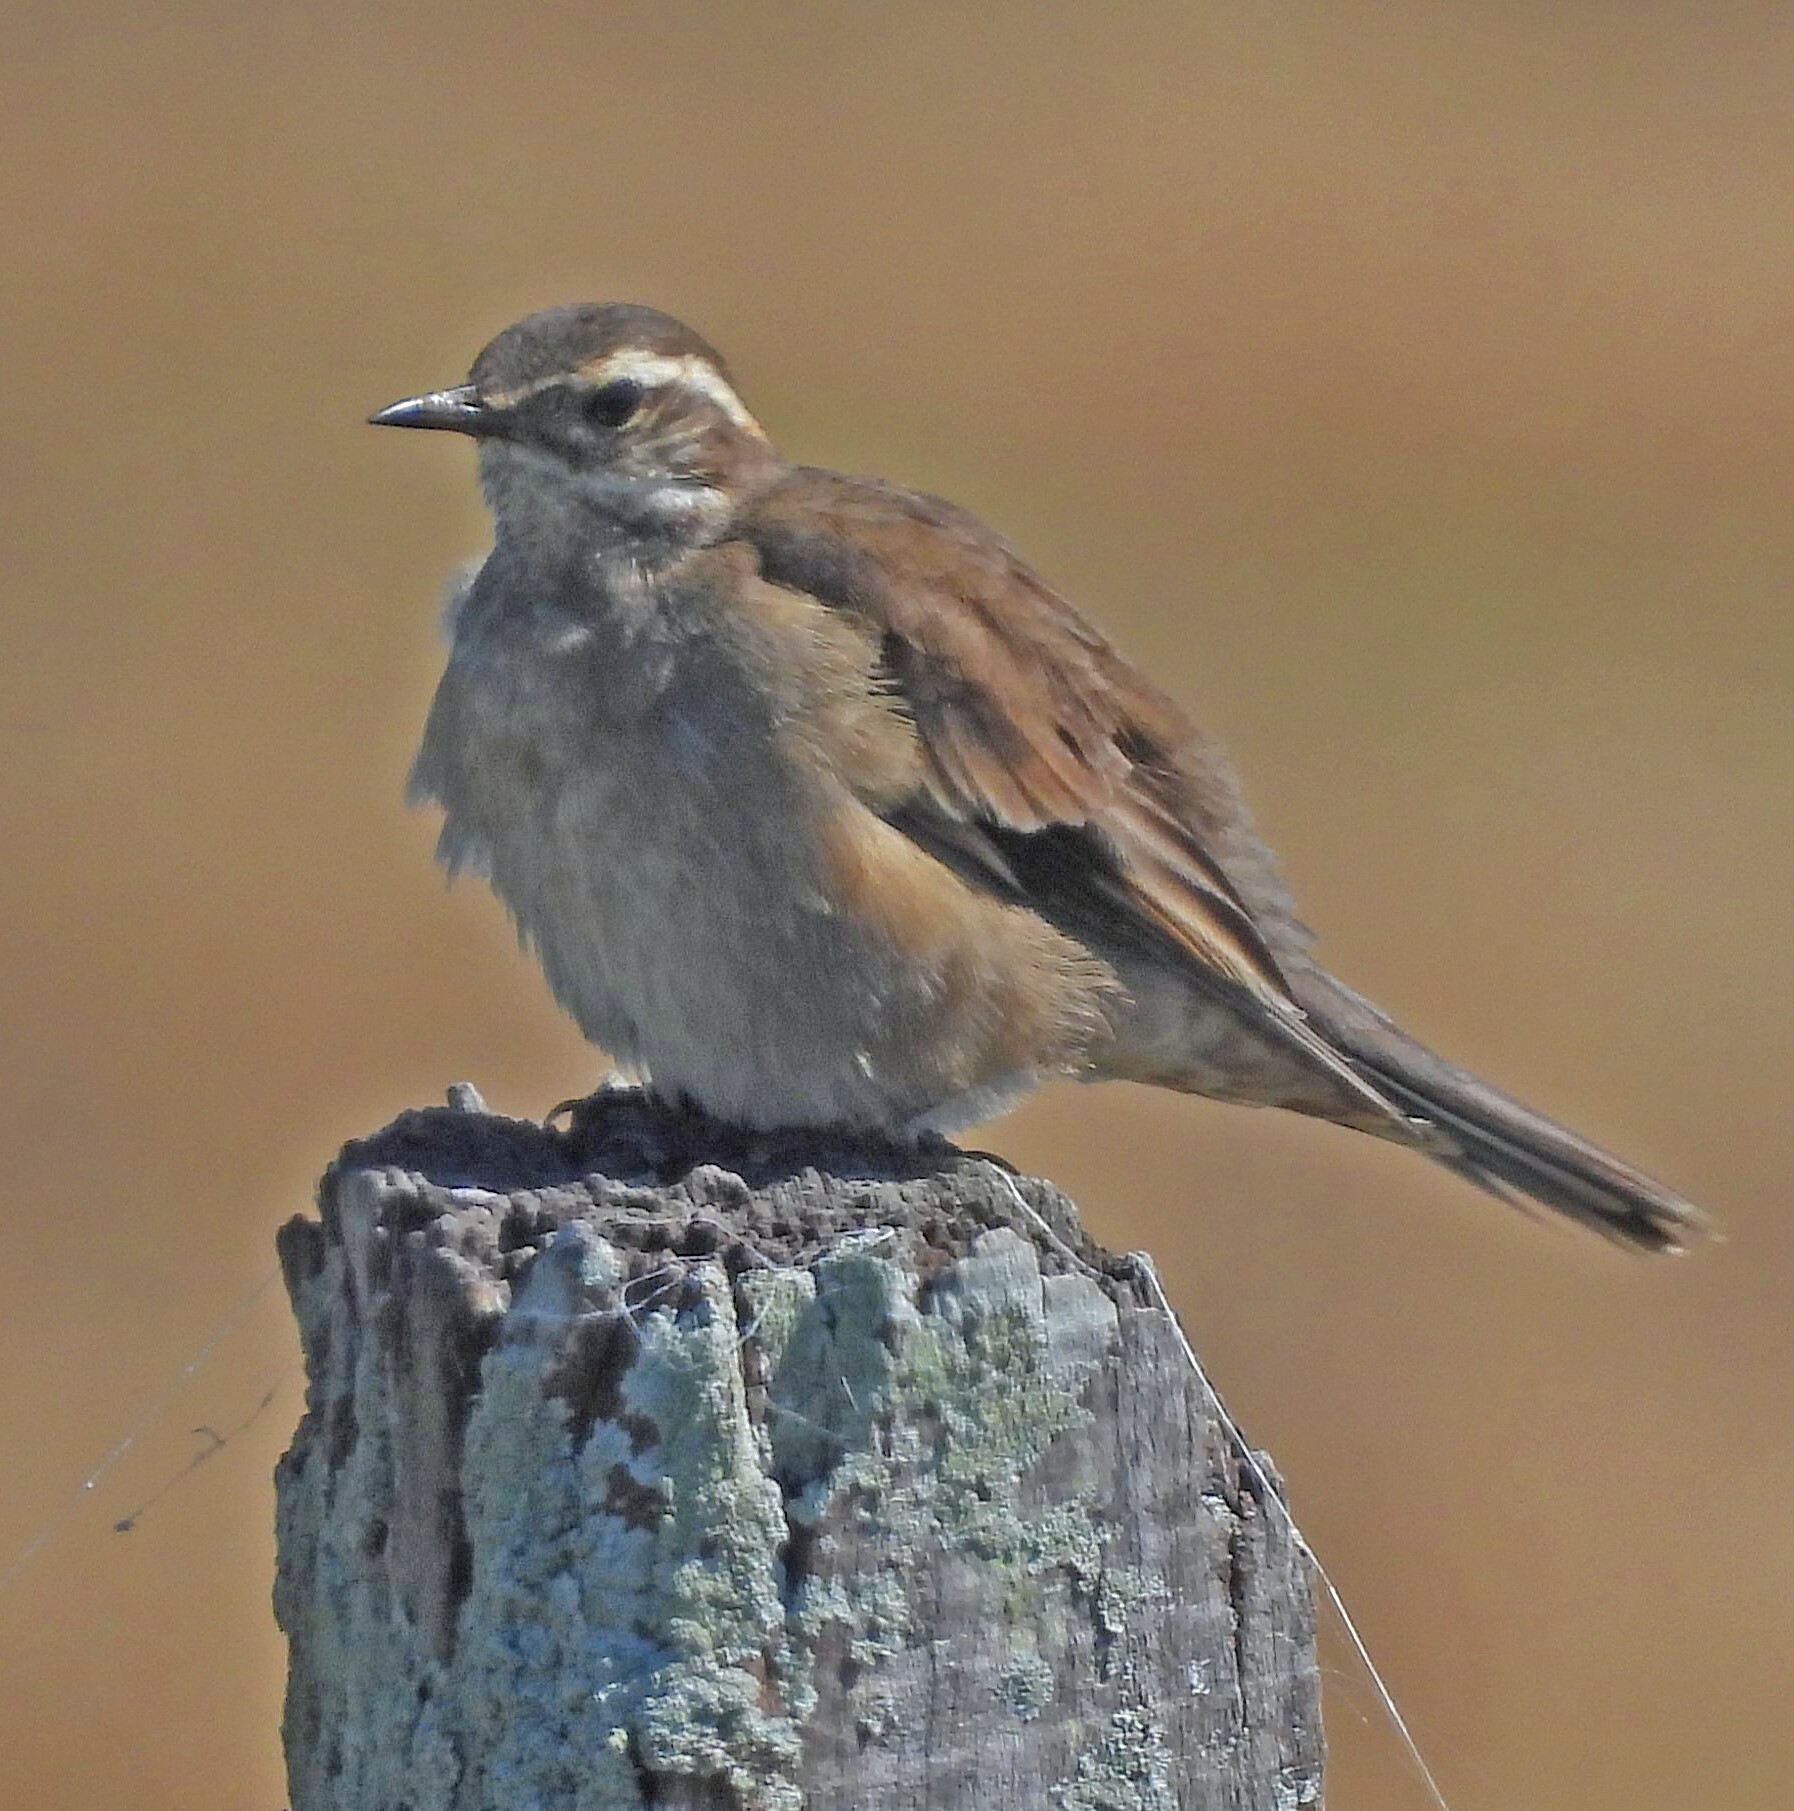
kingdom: Animalia
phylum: Chordata
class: Aves
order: Passeriformes
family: Furnariidae
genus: Cinclodes
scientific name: Cinclodes fuscus
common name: Buff-winged cinclodes
